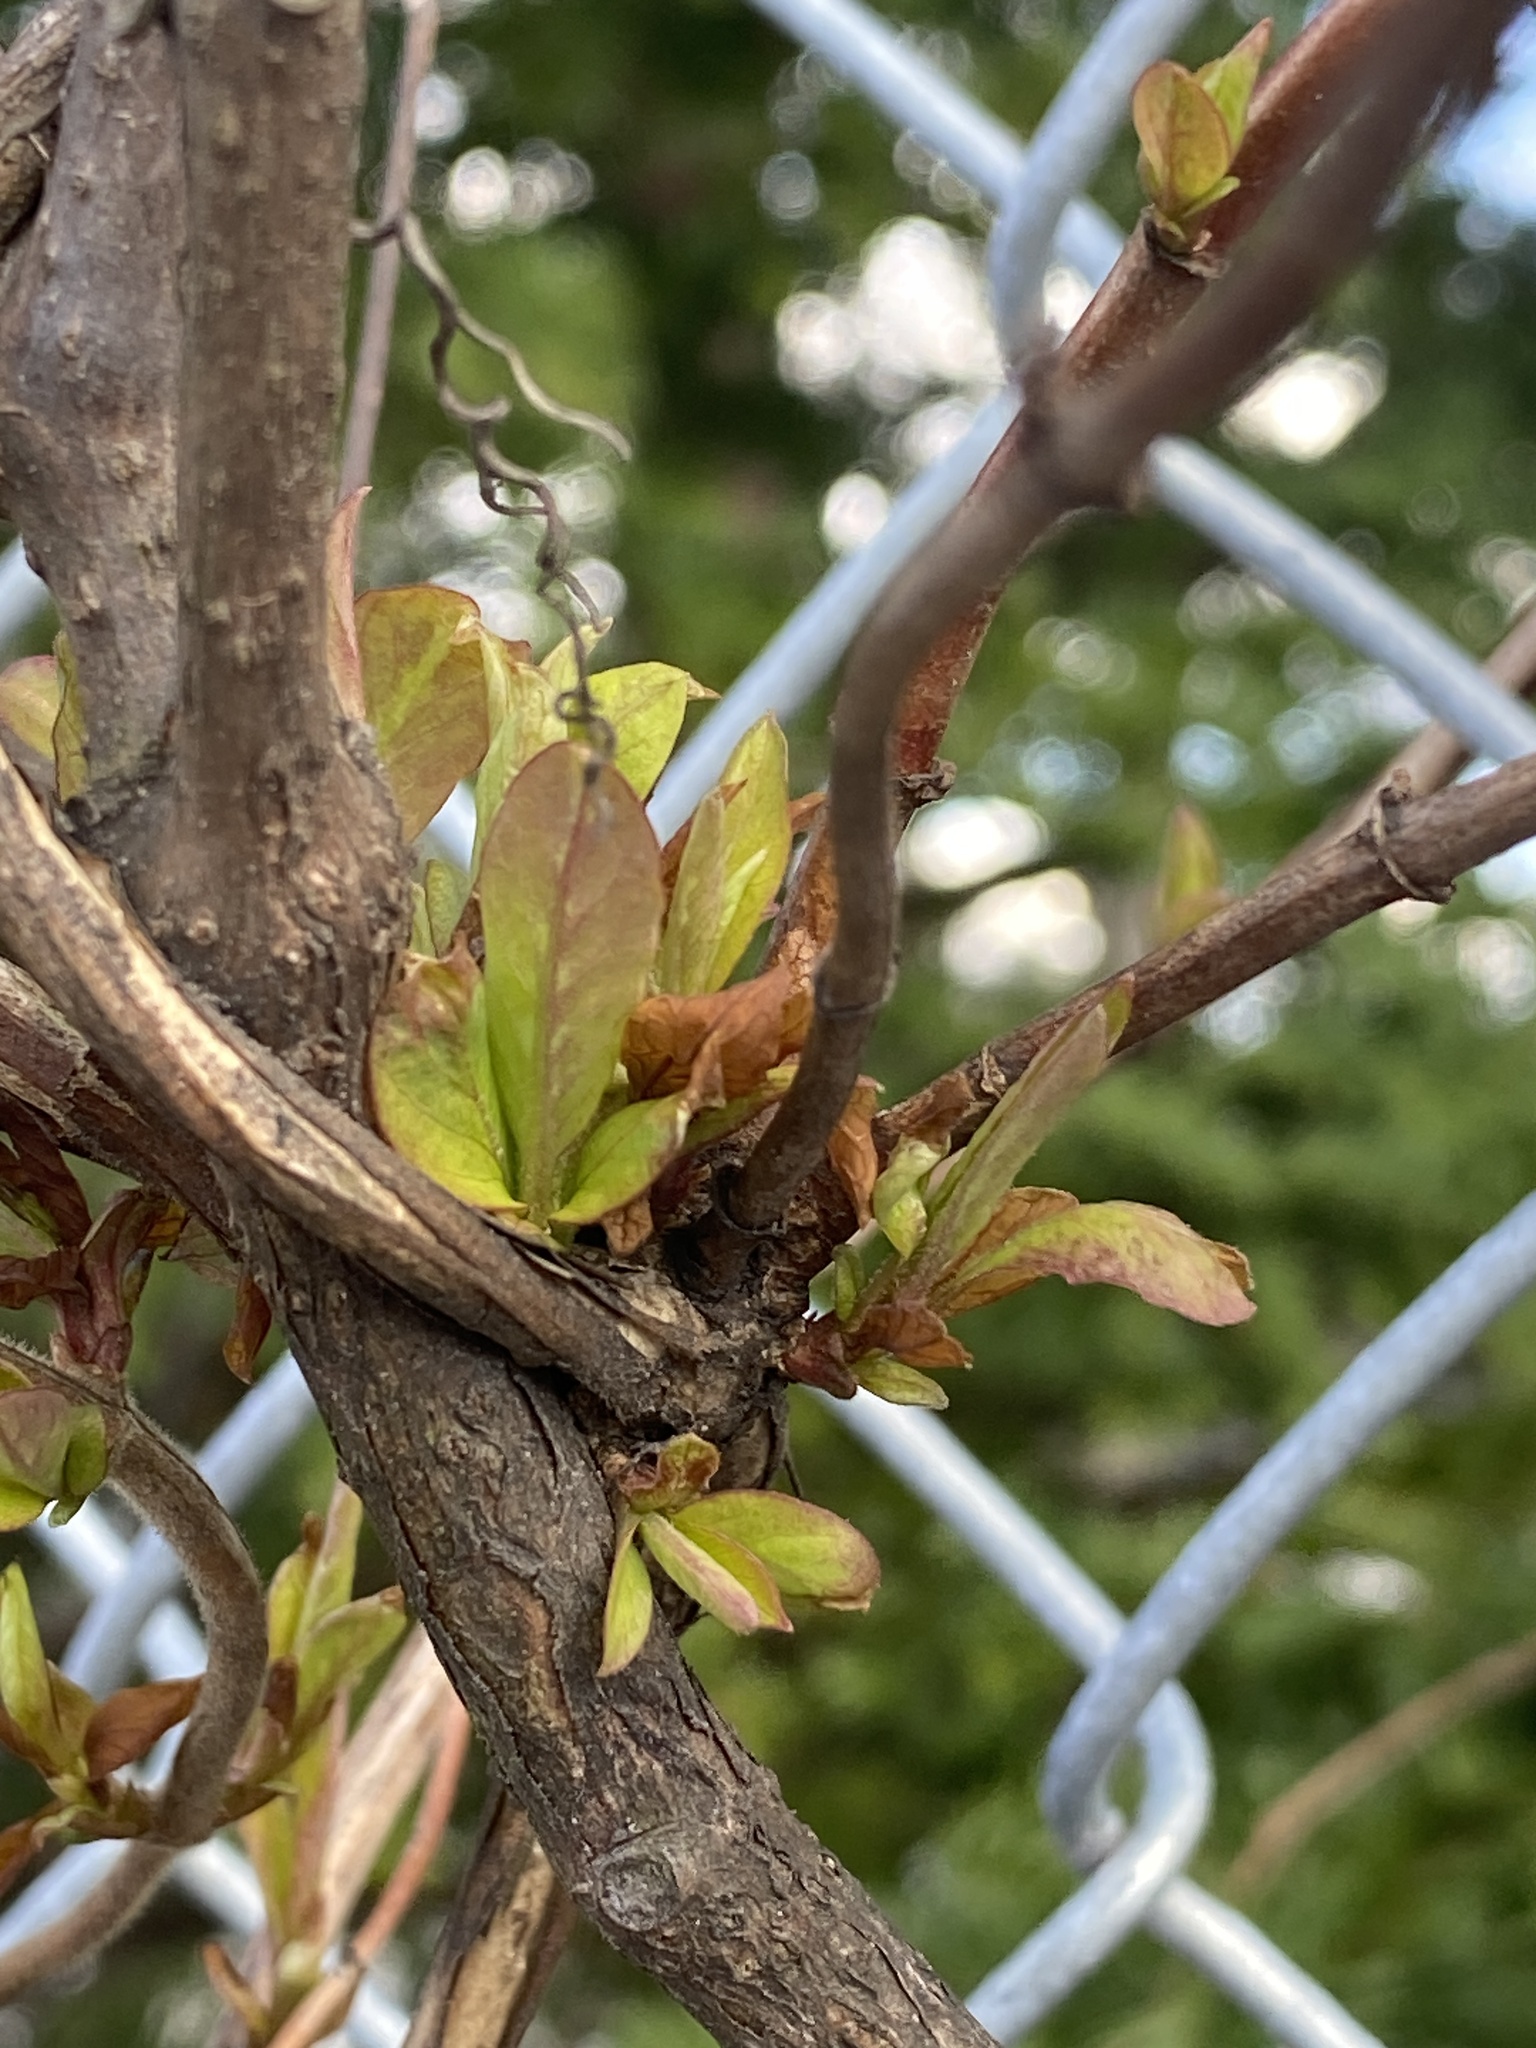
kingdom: Plantae
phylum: Tracheophyta
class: Magnoliopsida
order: Dipsacales
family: Caprifoliaceae
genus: Lonicera
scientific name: Lonicera japonica
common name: Japanese honeysuckle
